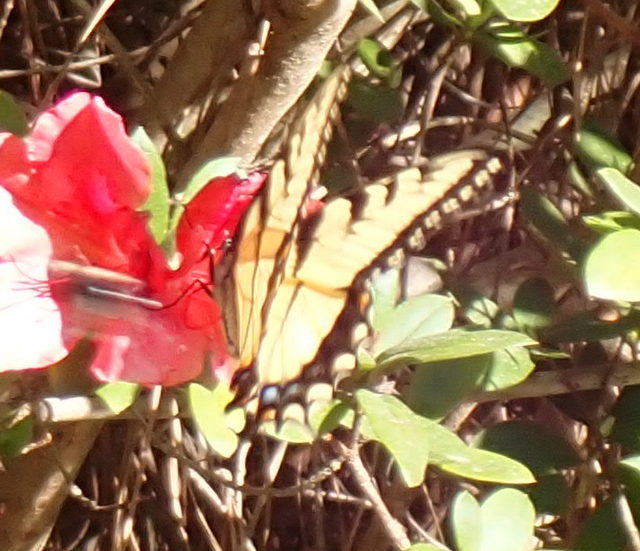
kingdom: Animalia
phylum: Arthropoda
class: Insecta
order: Lepidoptera
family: Papilionidae
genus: Papilio
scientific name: Papilio glaucus
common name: Tiger swallowtail
